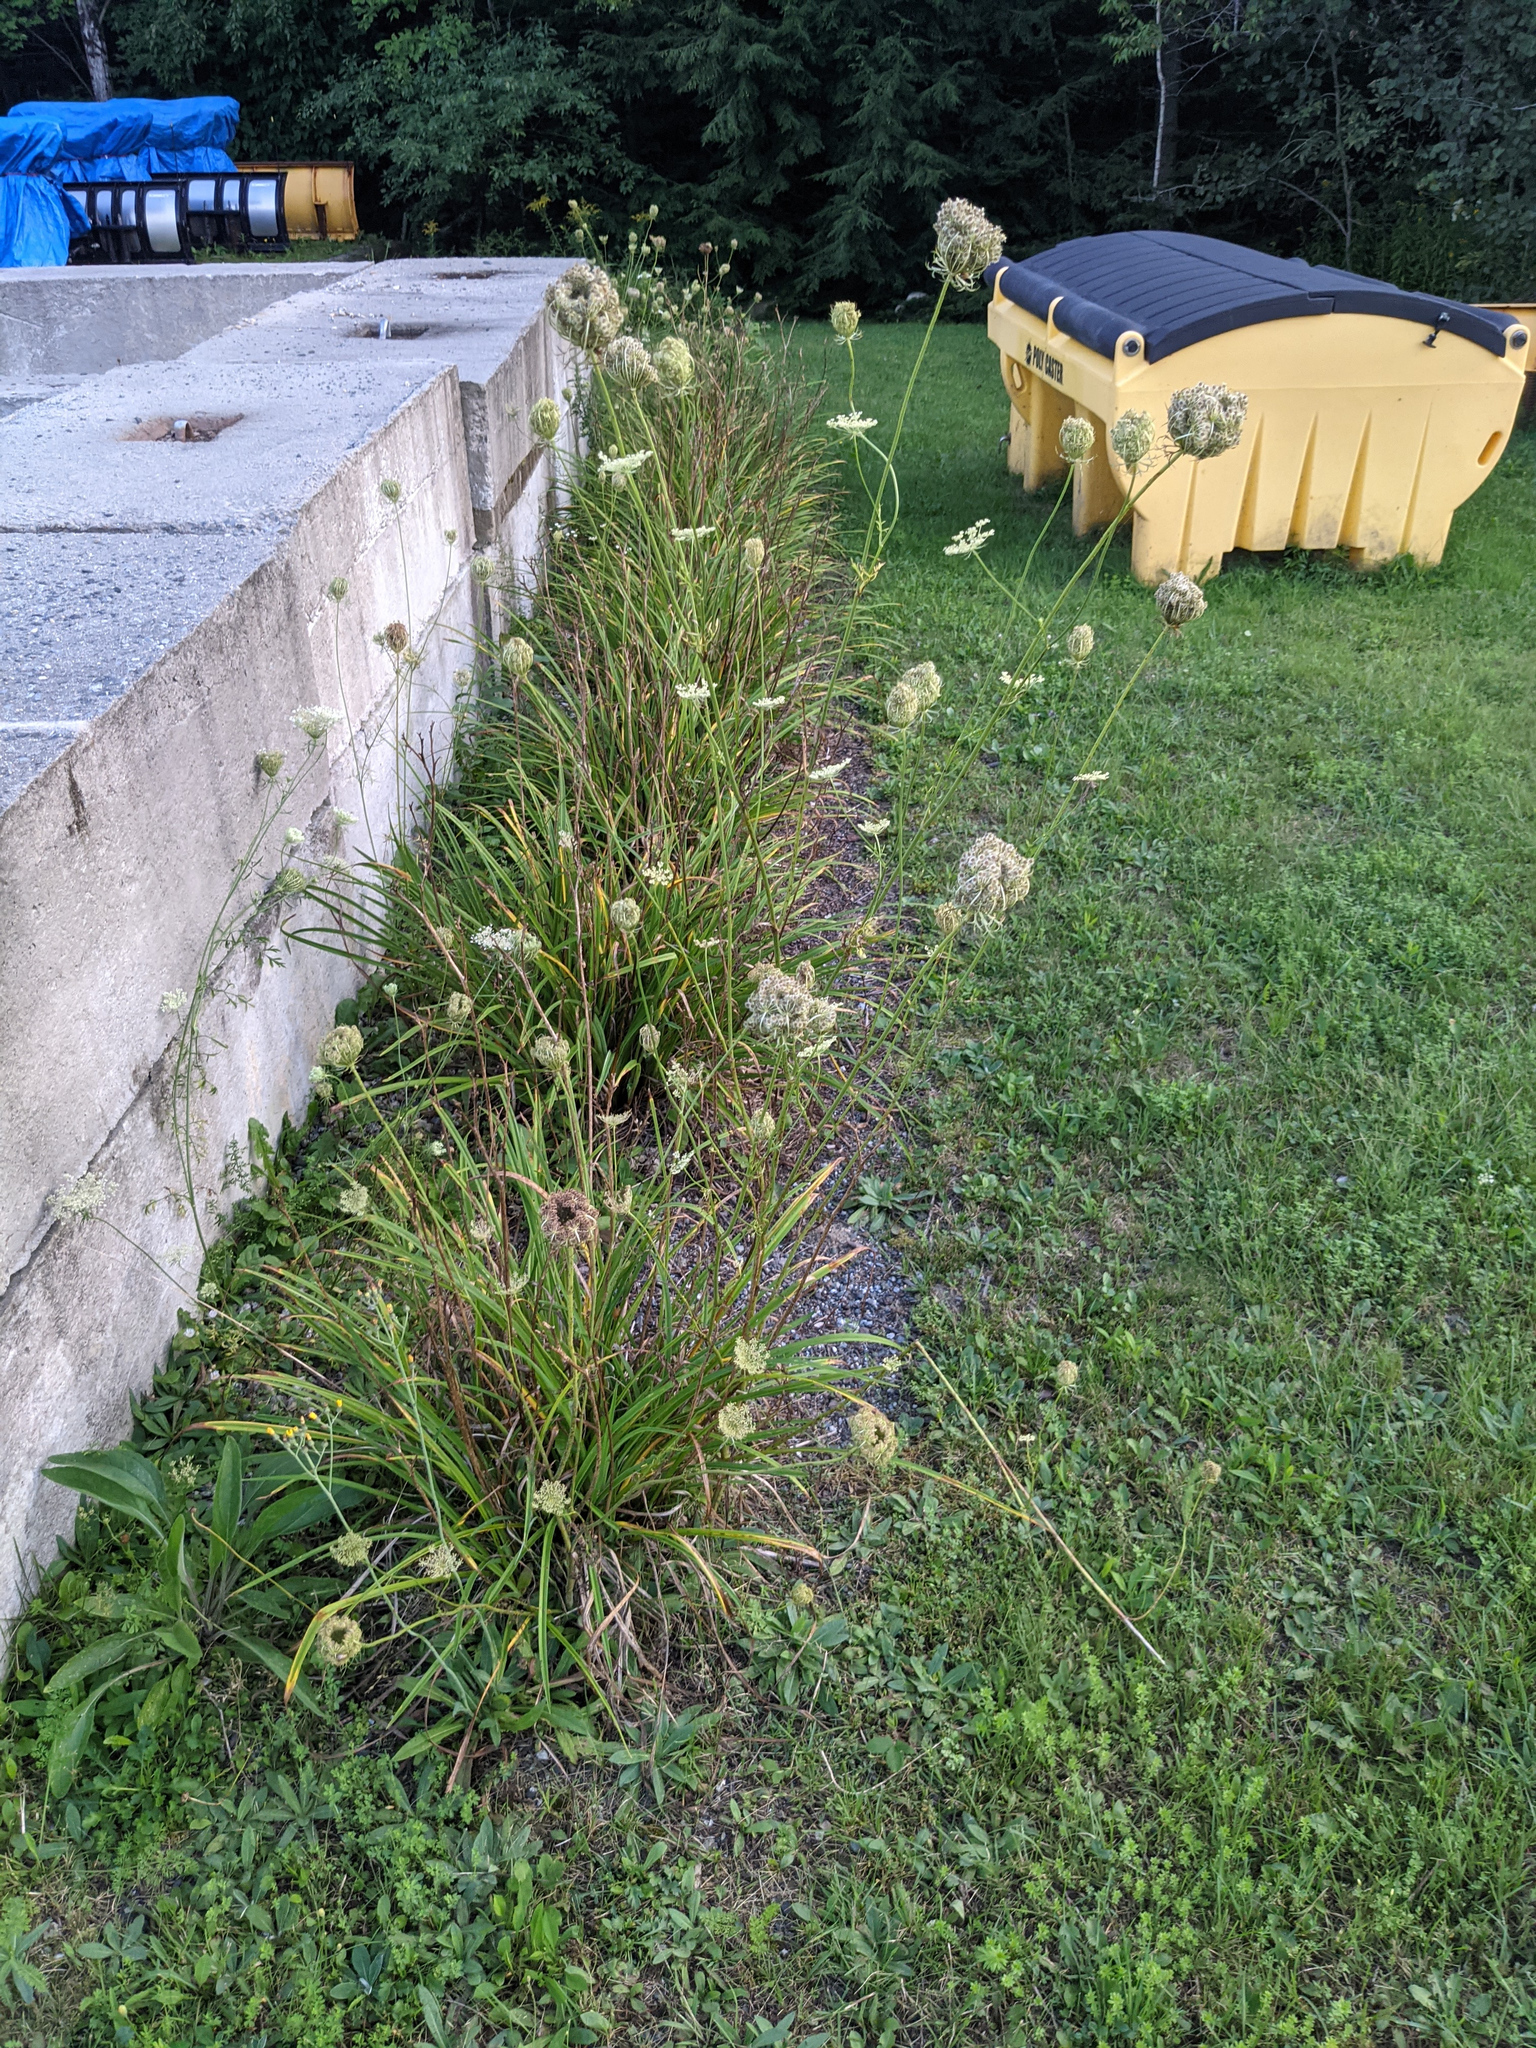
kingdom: Plantae
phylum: Tracheophyta
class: Magnoliopsida
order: Apiales
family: Apiaceae
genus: Daucus
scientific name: Daucus carota
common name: Wild carrot
